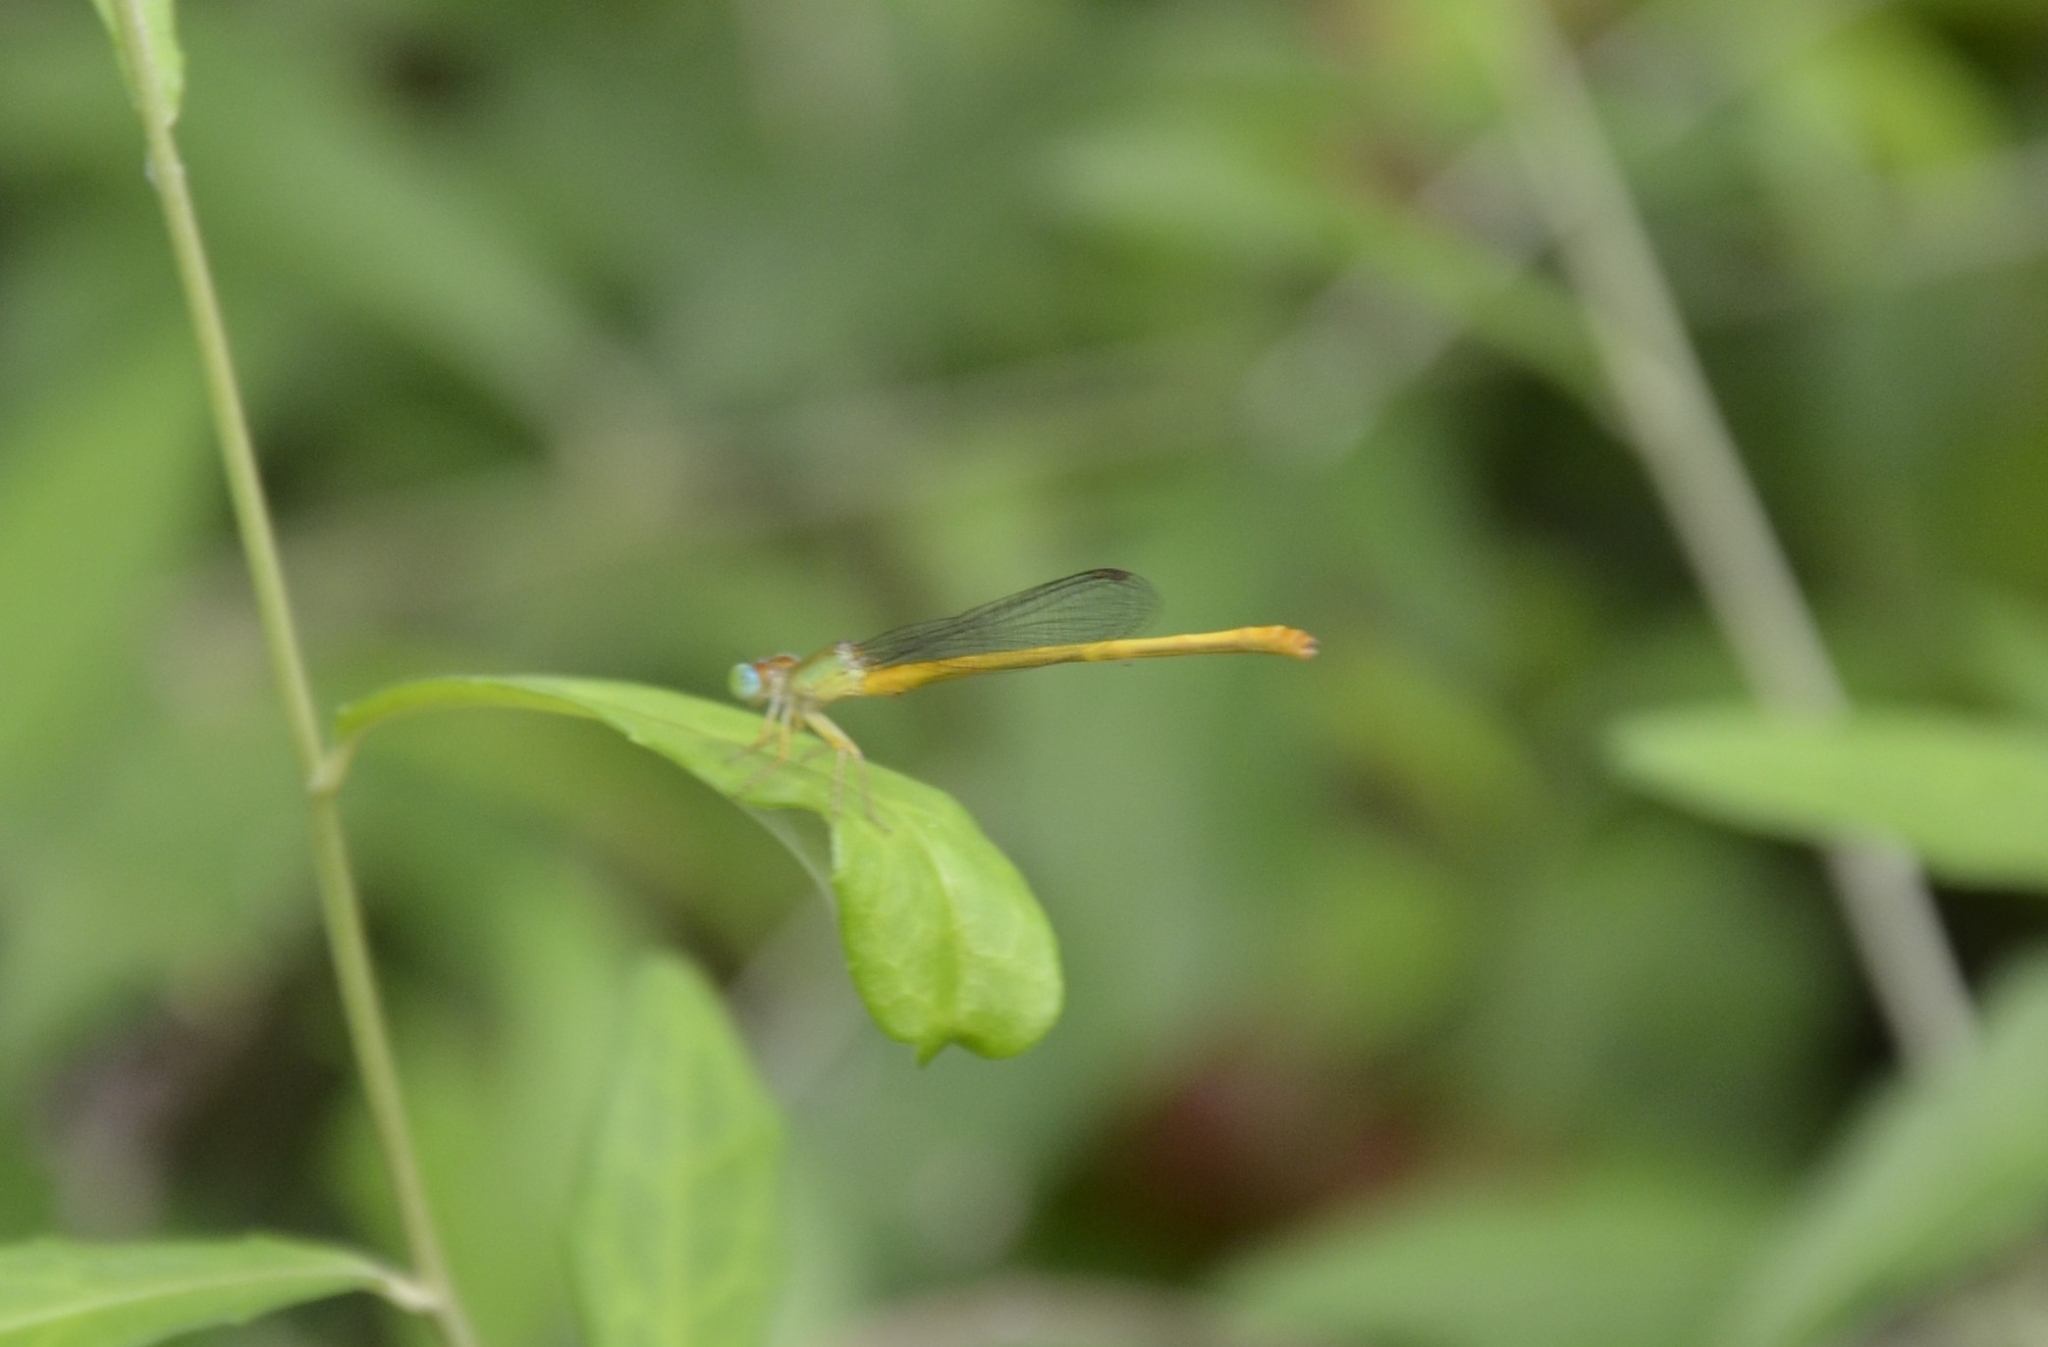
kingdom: Animalia
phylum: Arthropoda
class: Insecta
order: Odonata
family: Coenagrionidae
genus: Ceriagrion
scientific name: Ceriagrion coromandelianum
